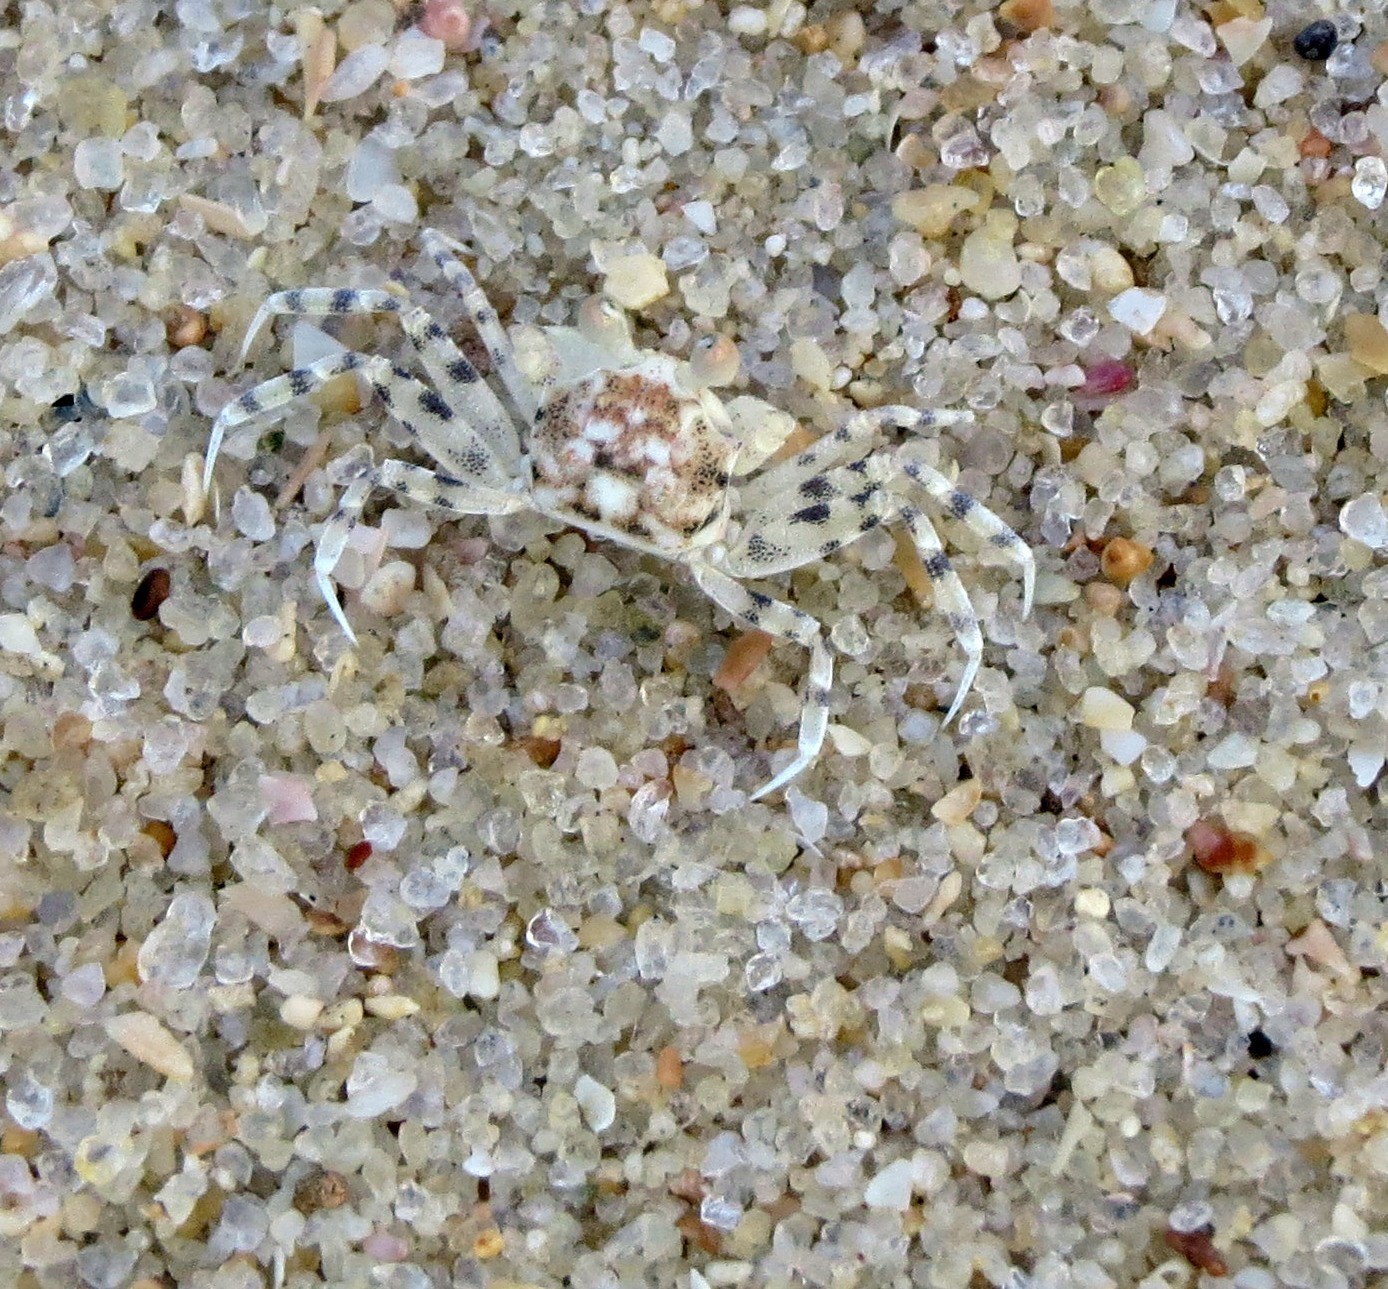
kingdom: Animalia
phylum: Arthropoda
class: Malacostraca
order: Decapoda
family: Ocypodidae
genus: Ocypode
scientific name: Ocypode
